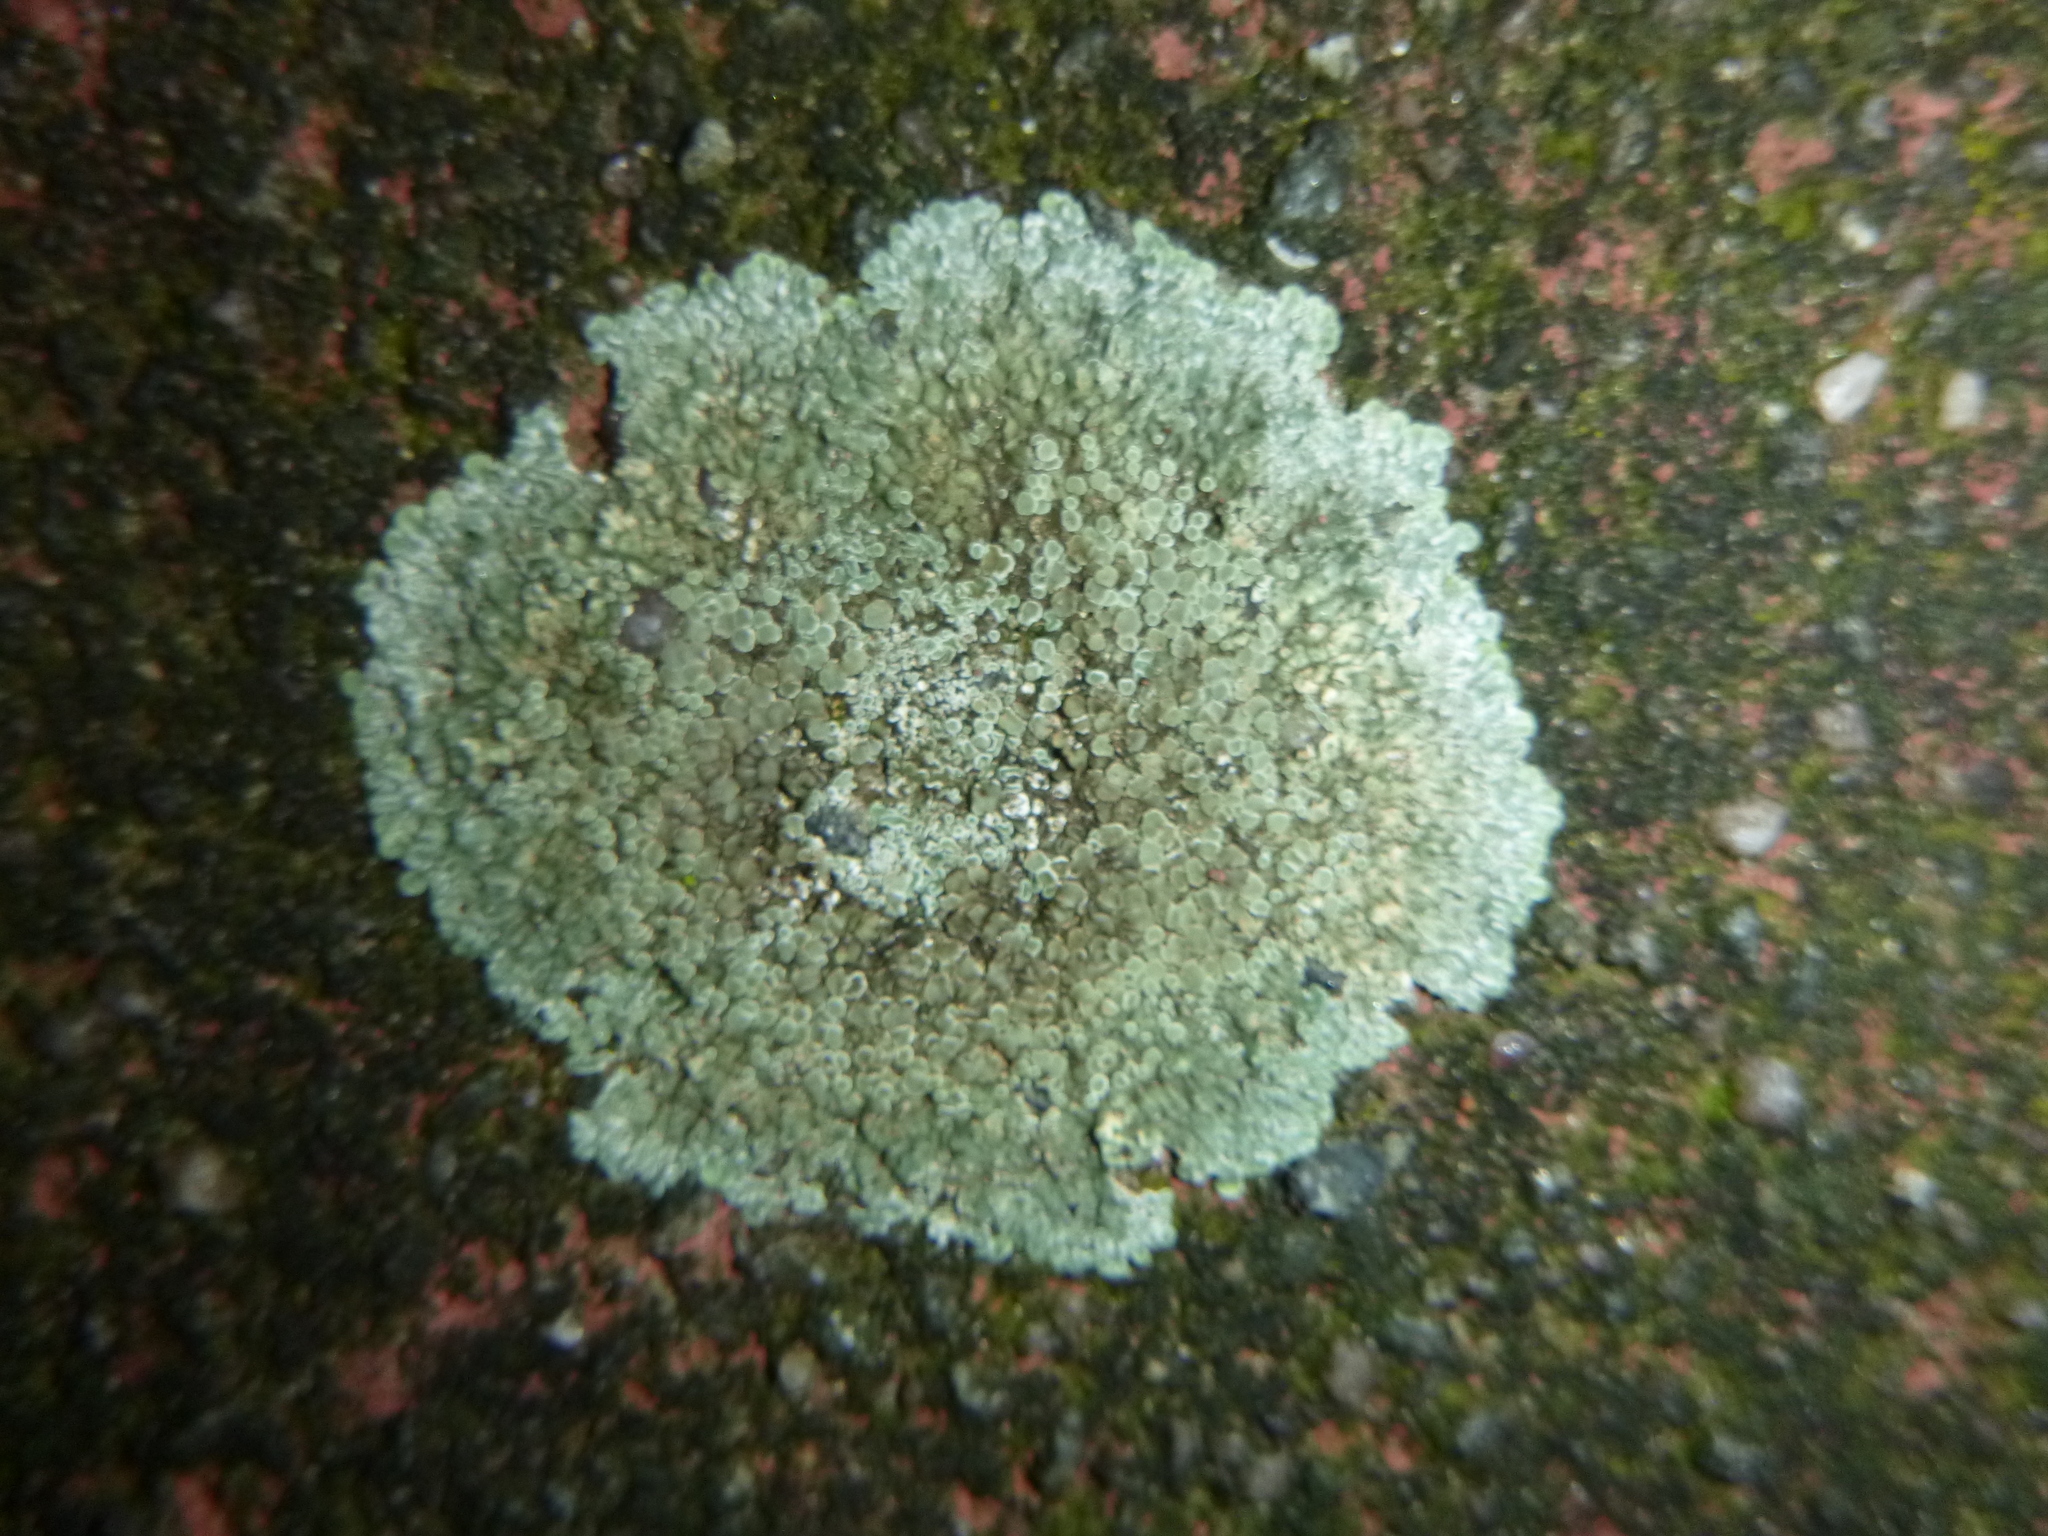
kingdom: Fungi
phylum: Ascomycota
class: Lecanoromycetes
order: Lecanorales
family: Lecanoraceae
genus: Protoparmeliopsis
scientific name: Protoparmeliopsis muralis
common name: Stonewall rim lichen
